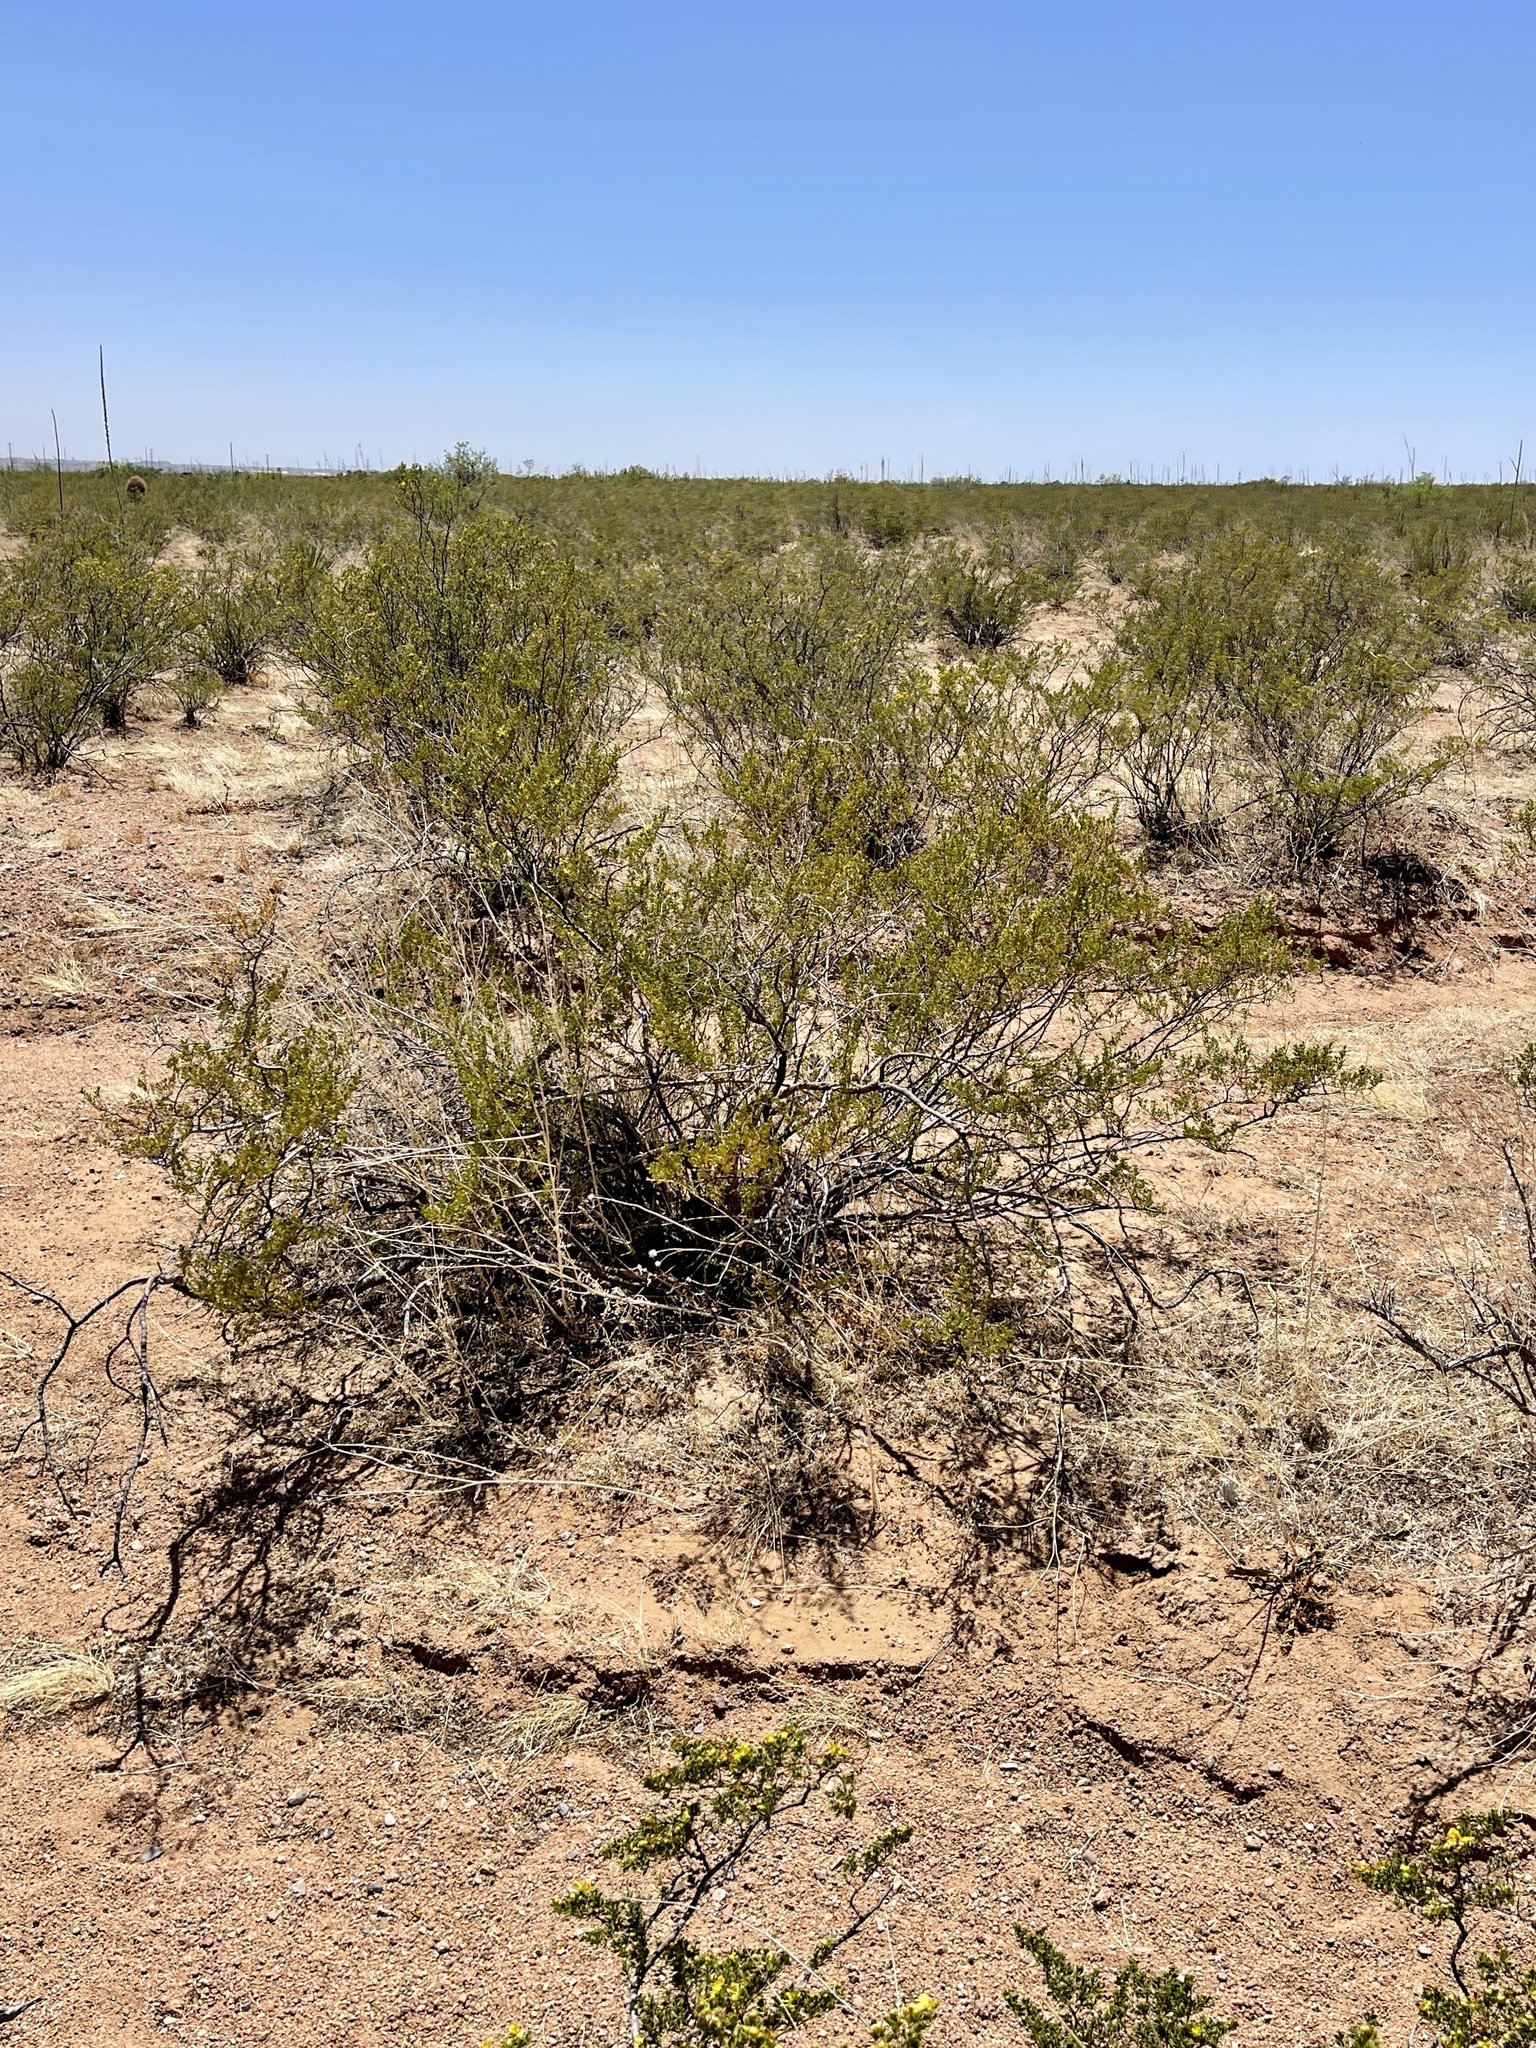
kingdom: Plantae
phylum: Tracheophyta
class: Magnoliopsida
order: Zygophyllales
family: Zygophyllaceae
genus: Larrea
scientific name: Larrea tridentata
